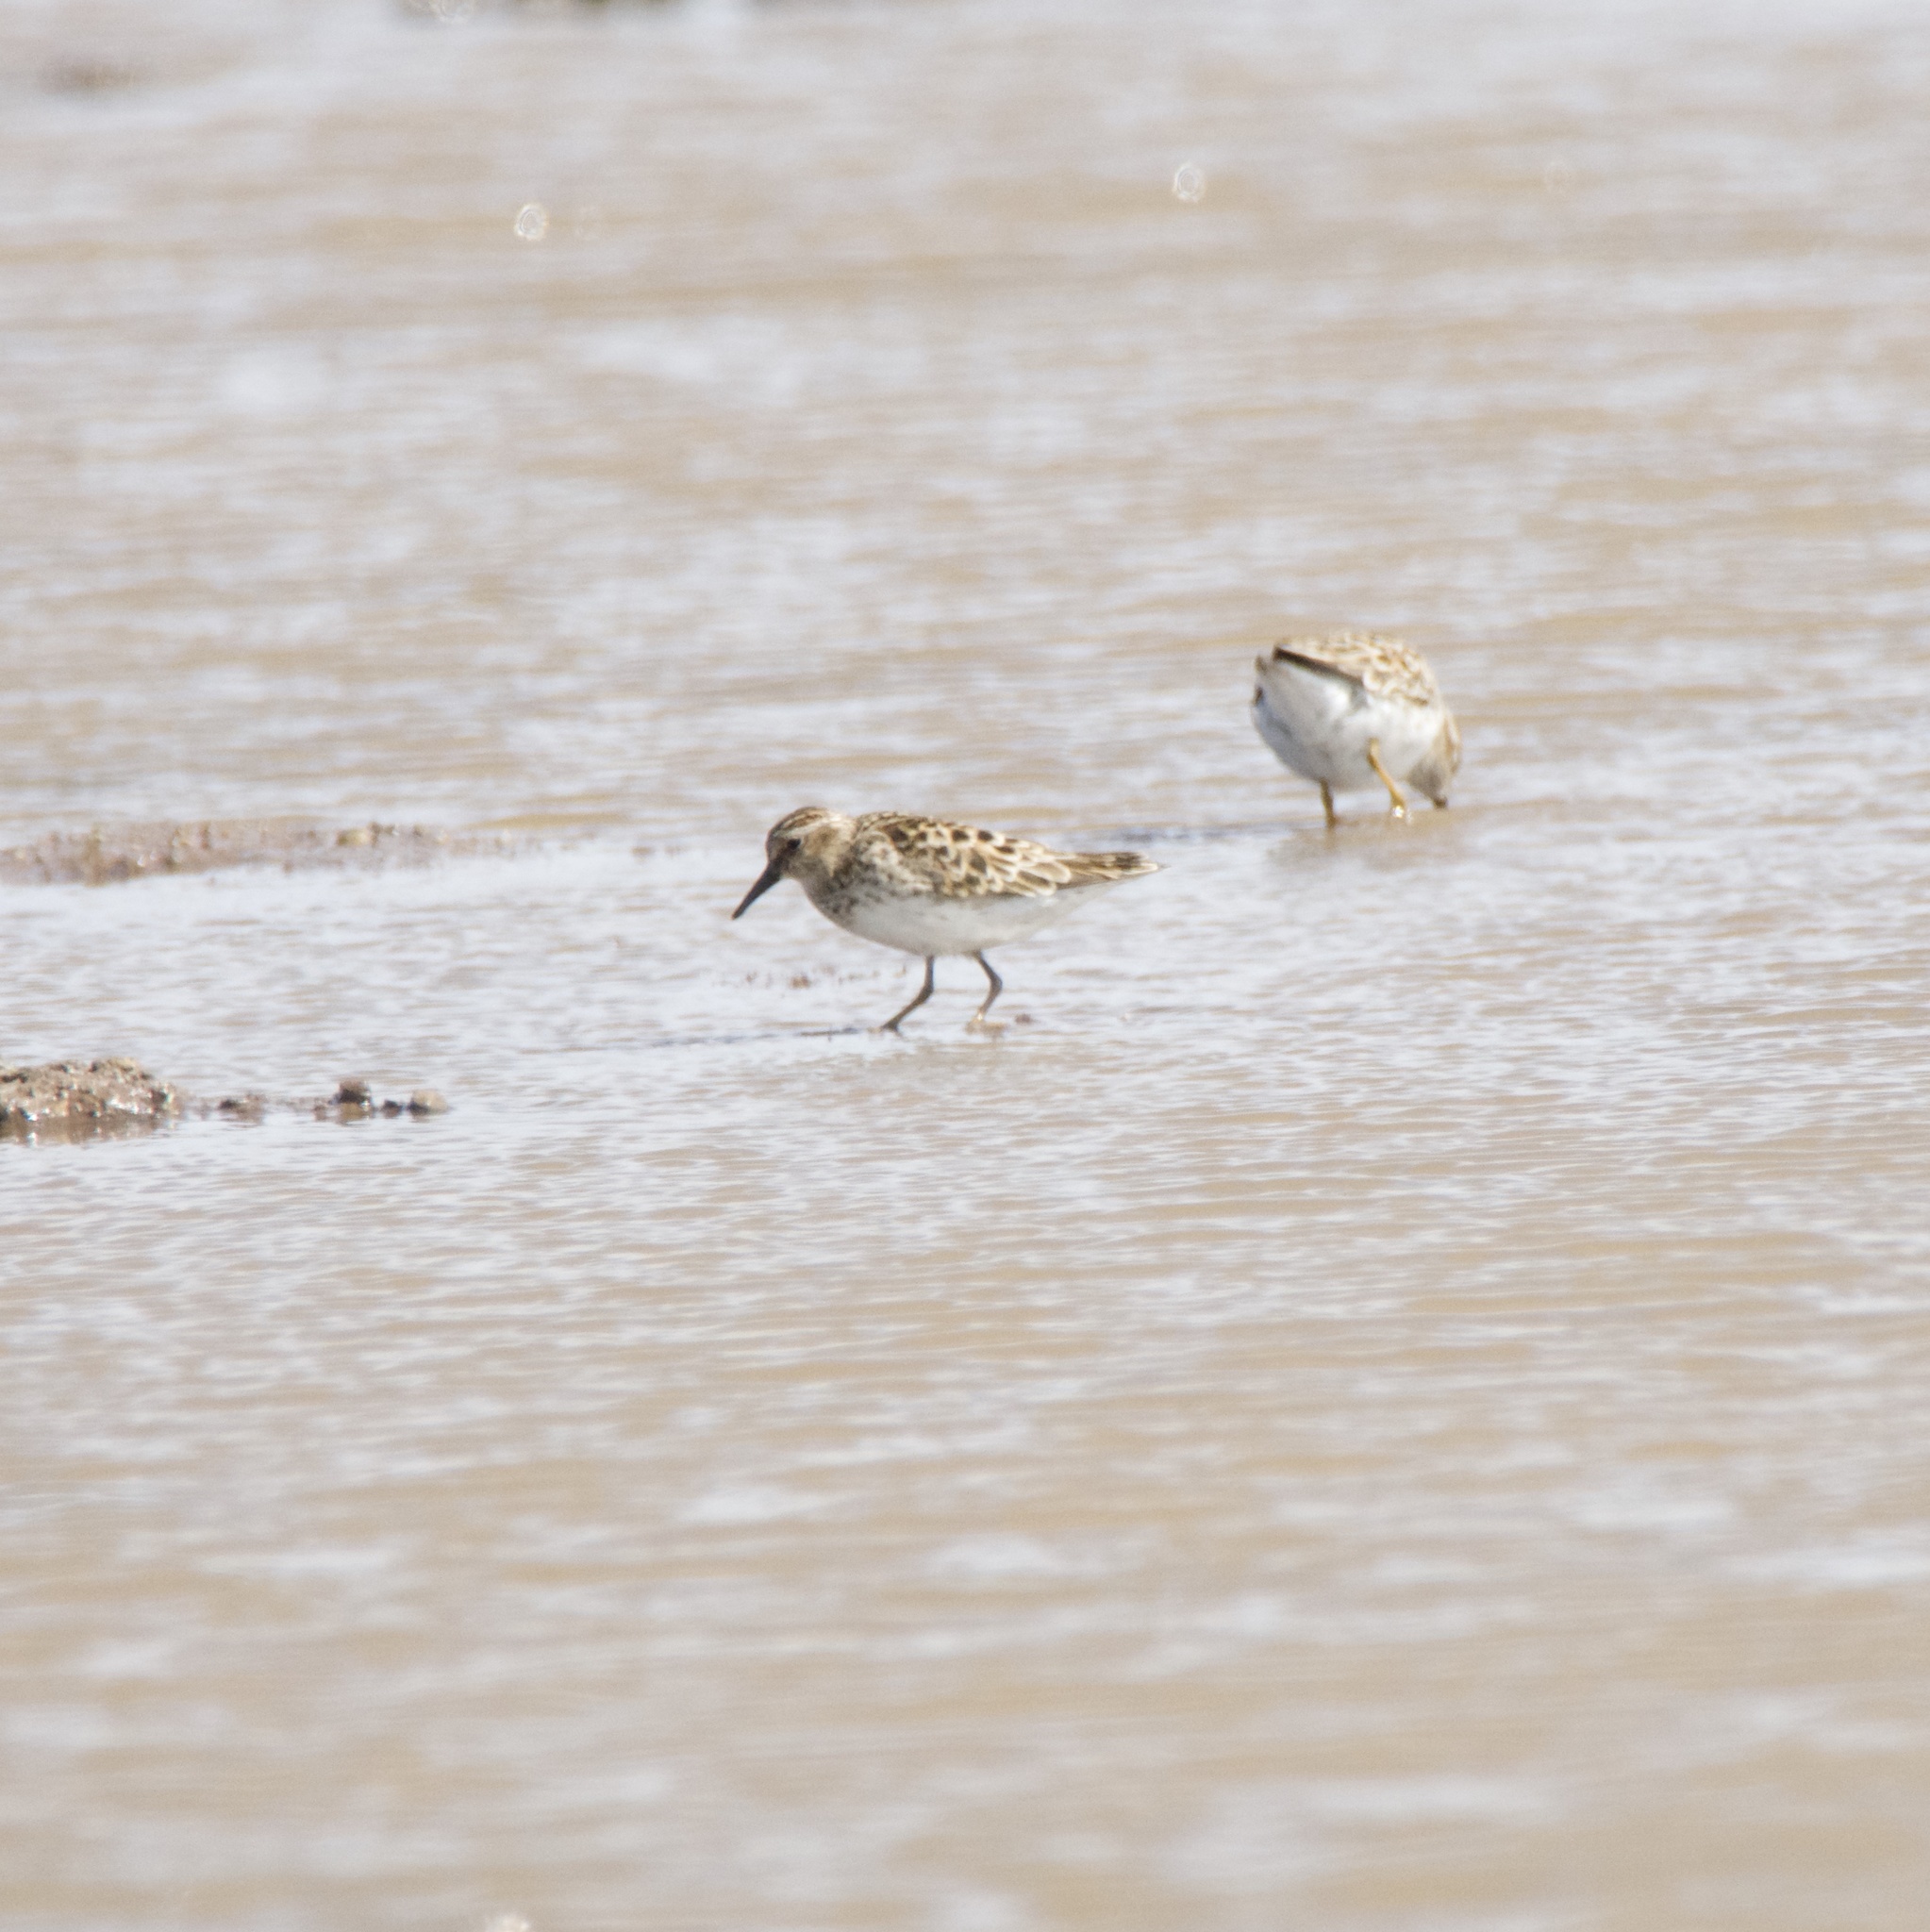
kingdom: Animalia
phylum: Chordata
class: Aves
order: Charadriiformes
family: Scolopacidae
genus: Calidris
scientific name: Calidris minutilla
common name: Least sandpiper
